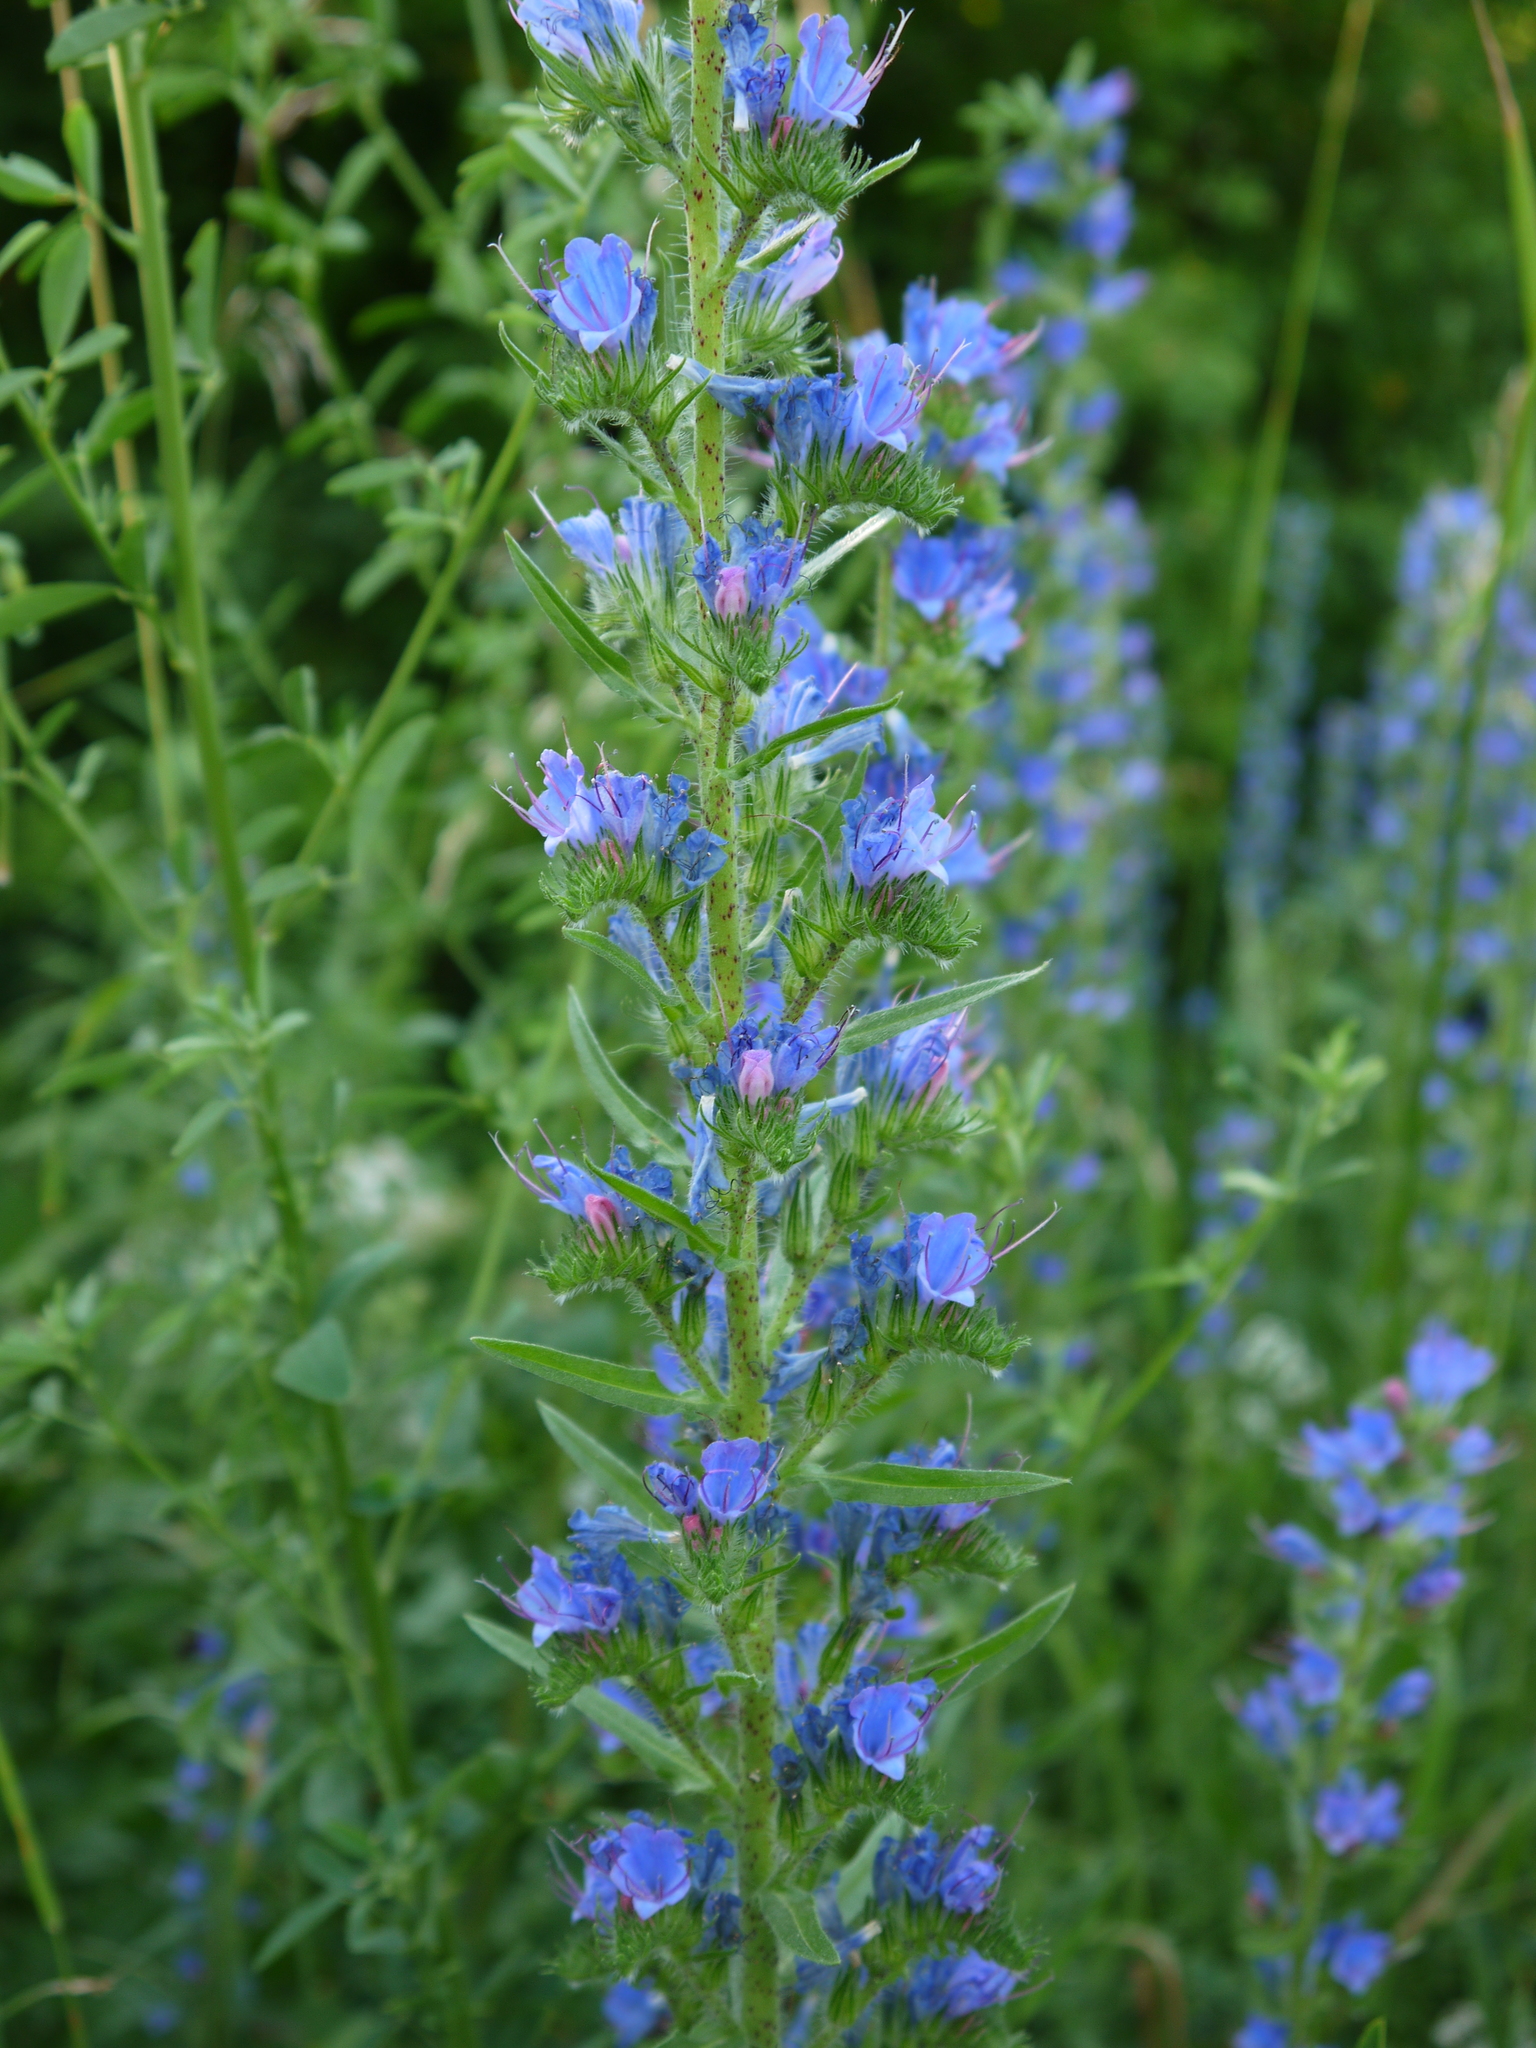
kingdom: Plantae
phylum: Tracheophyta
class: Magnoliopsida
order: Boraginales
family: Boraginaceae
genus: Echium
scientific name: Echium vulgare
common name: Common viper's bugloss
